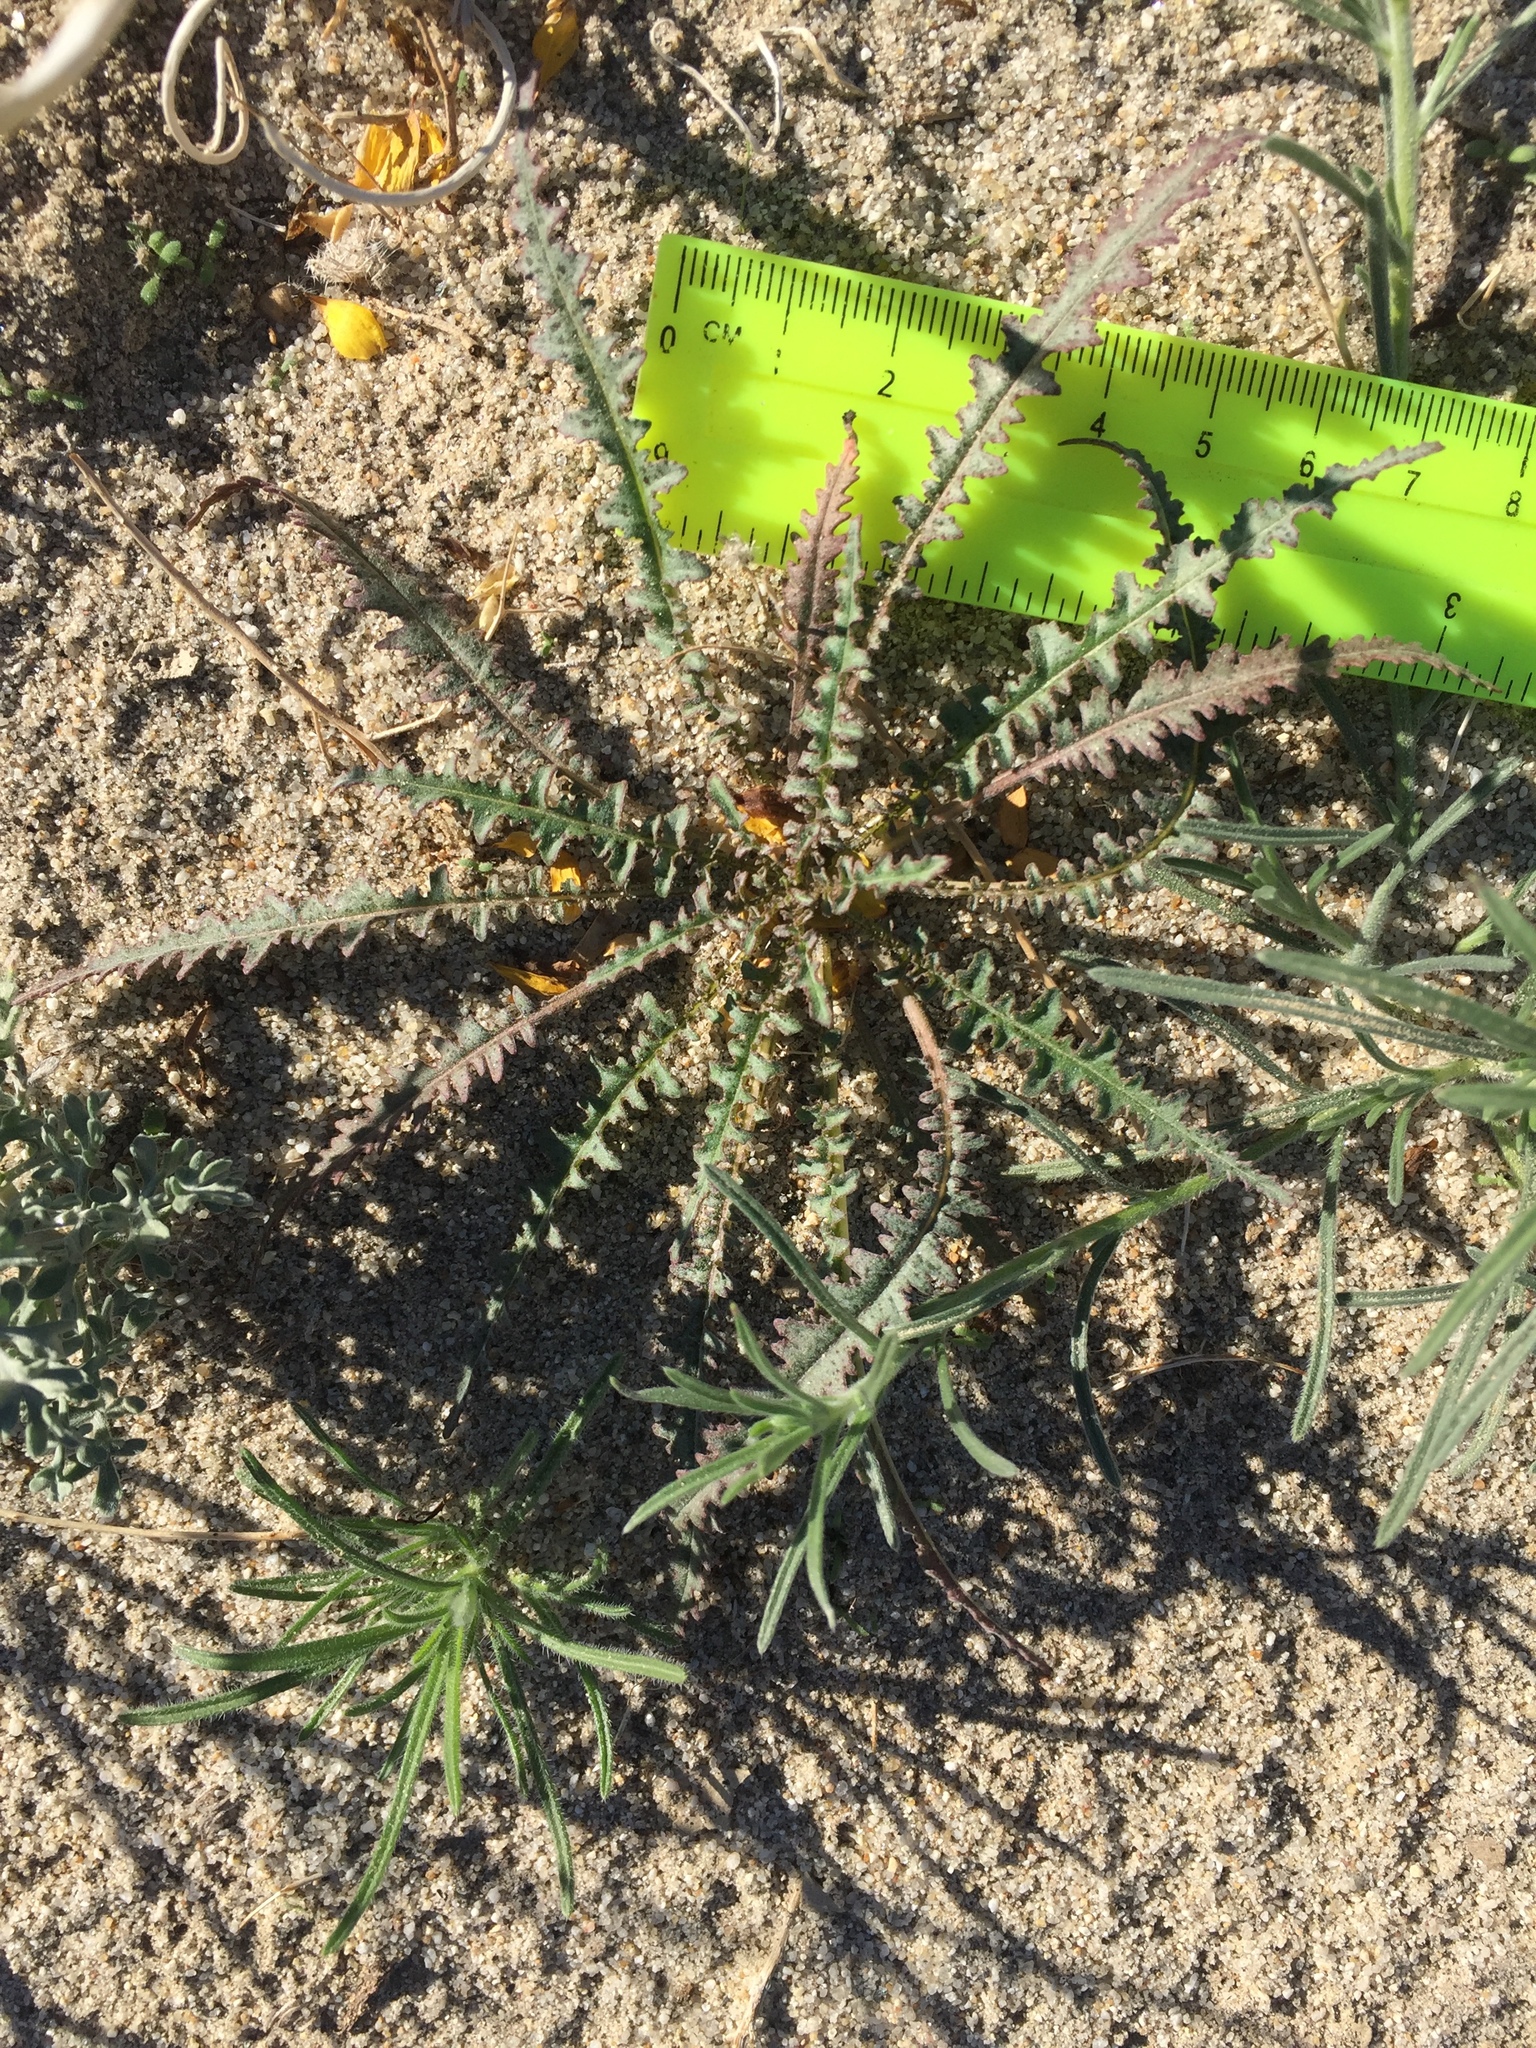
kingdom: Plantae
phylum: Tracheophyta
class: Magnoliopsida
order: Myrtales
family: Onagraceae
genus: Eulobus
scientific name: Eulobus californicus
